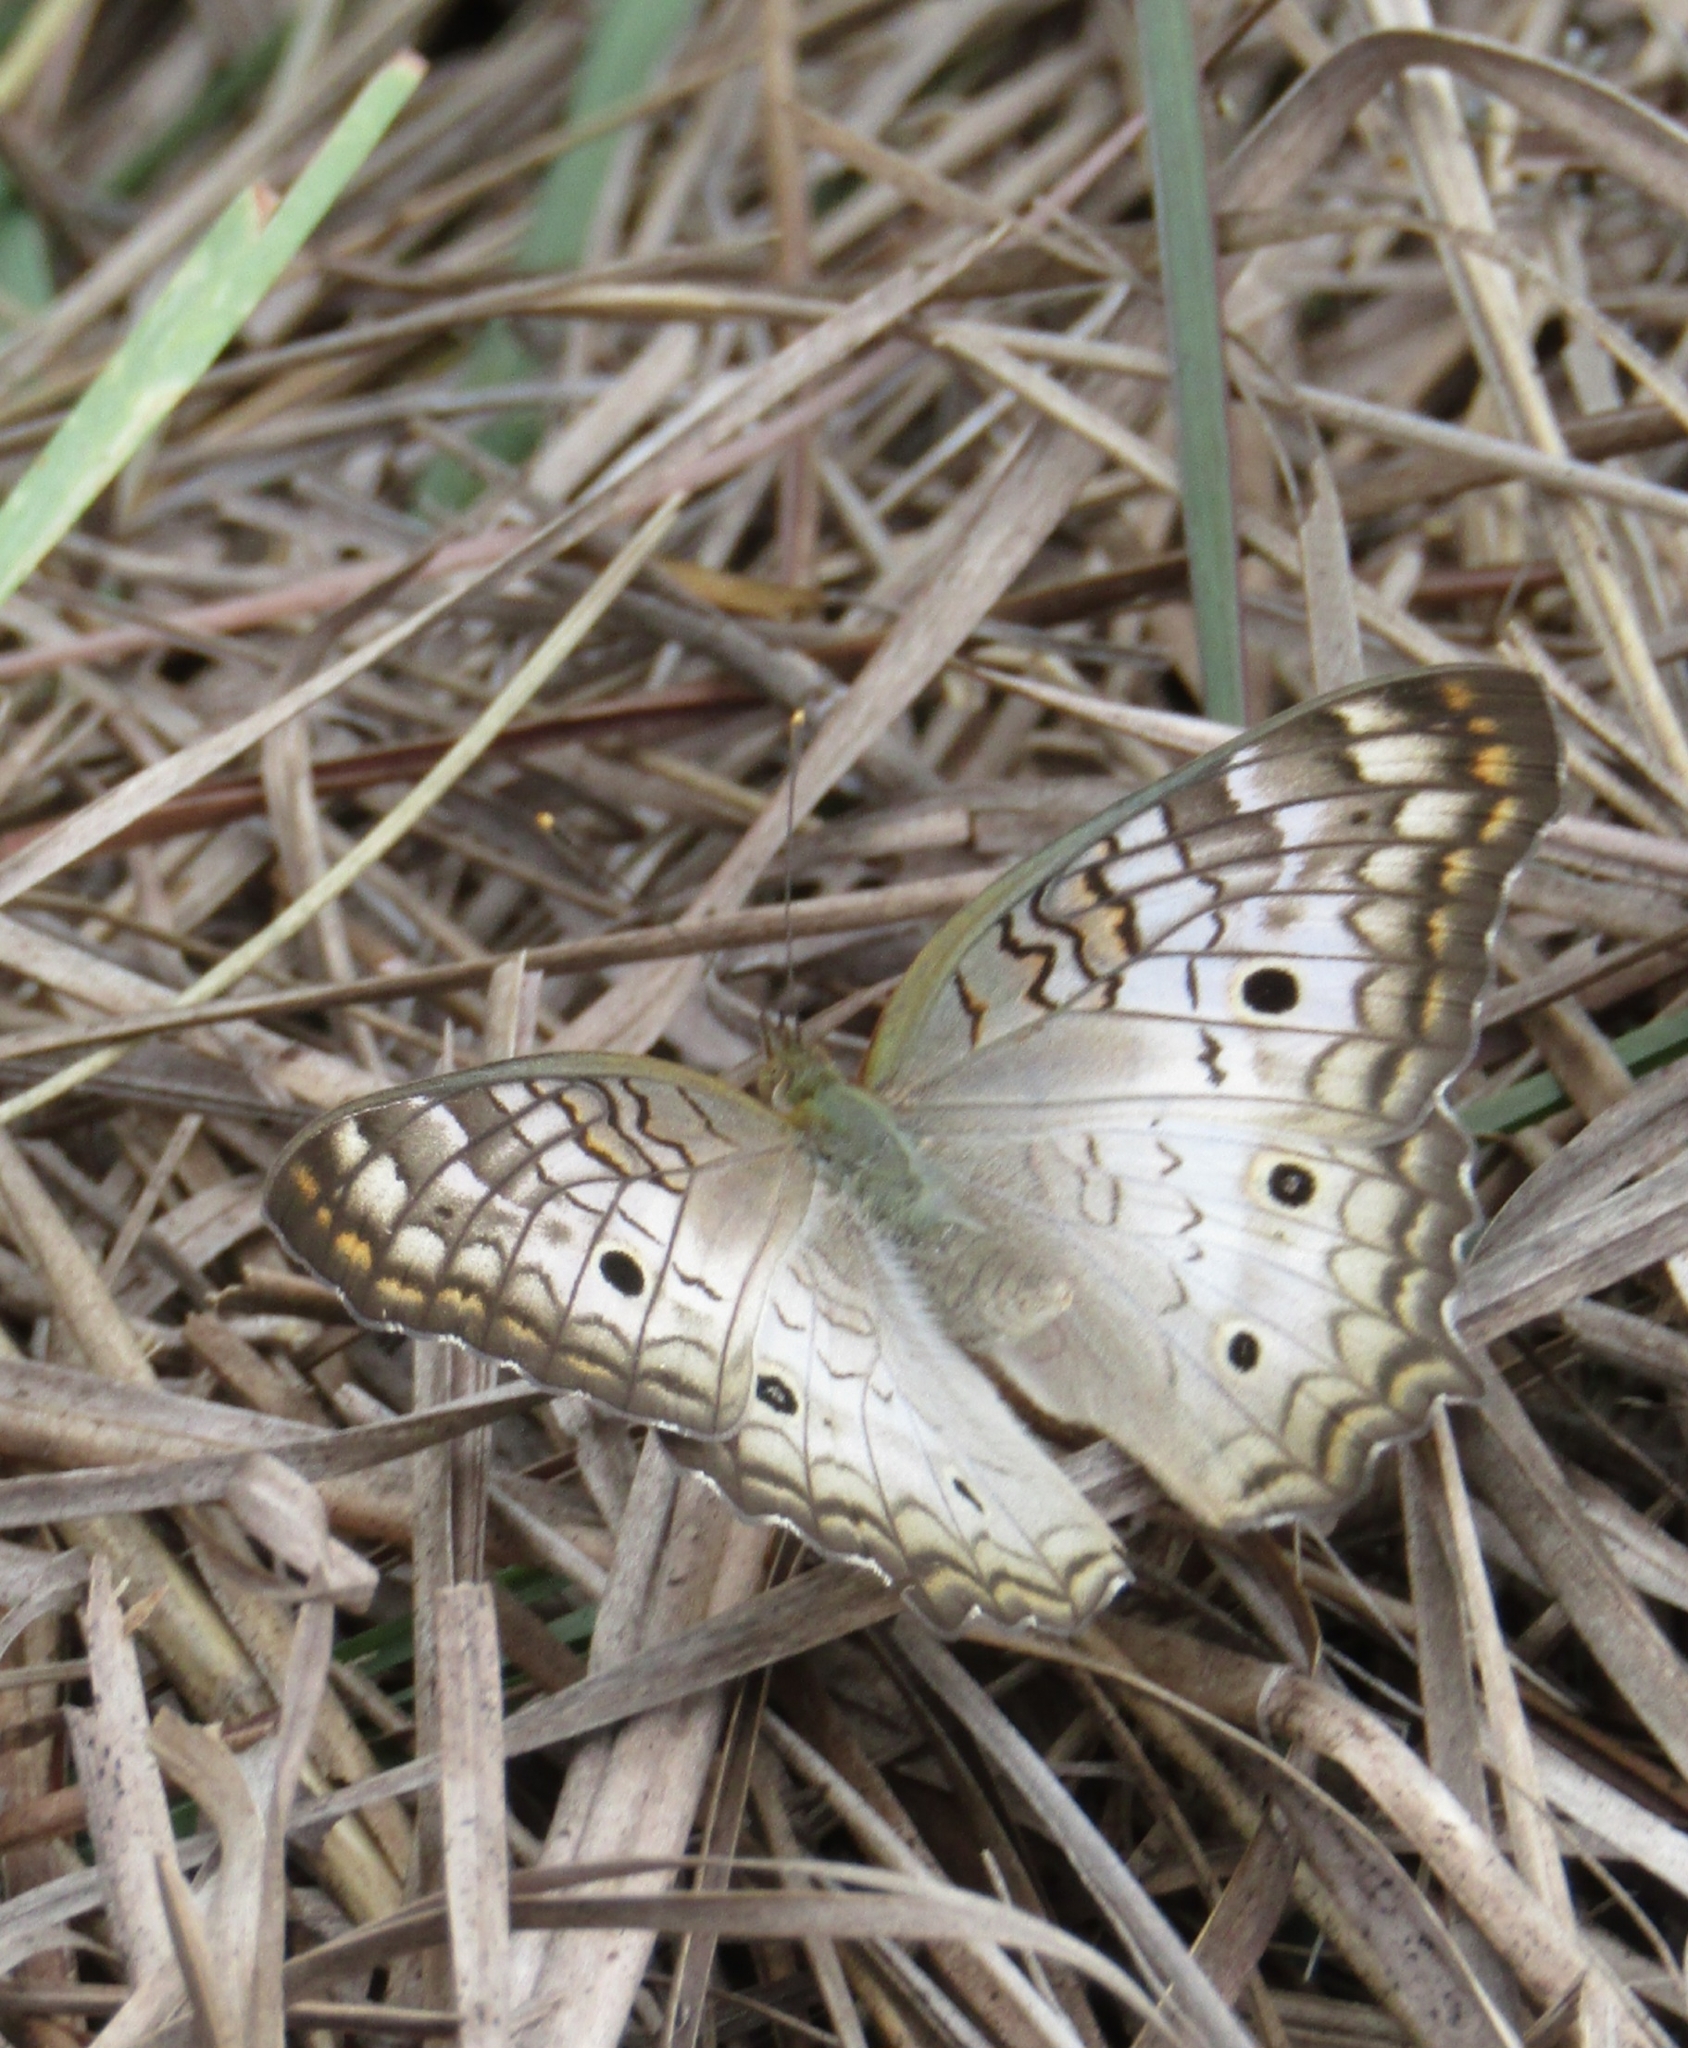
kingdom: Animalia
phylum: Arthropoda
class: Insecta
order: Lepidoptera
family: Nymphalidae
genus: Anartia
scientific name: Anartia jatrophae
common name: White peacock
